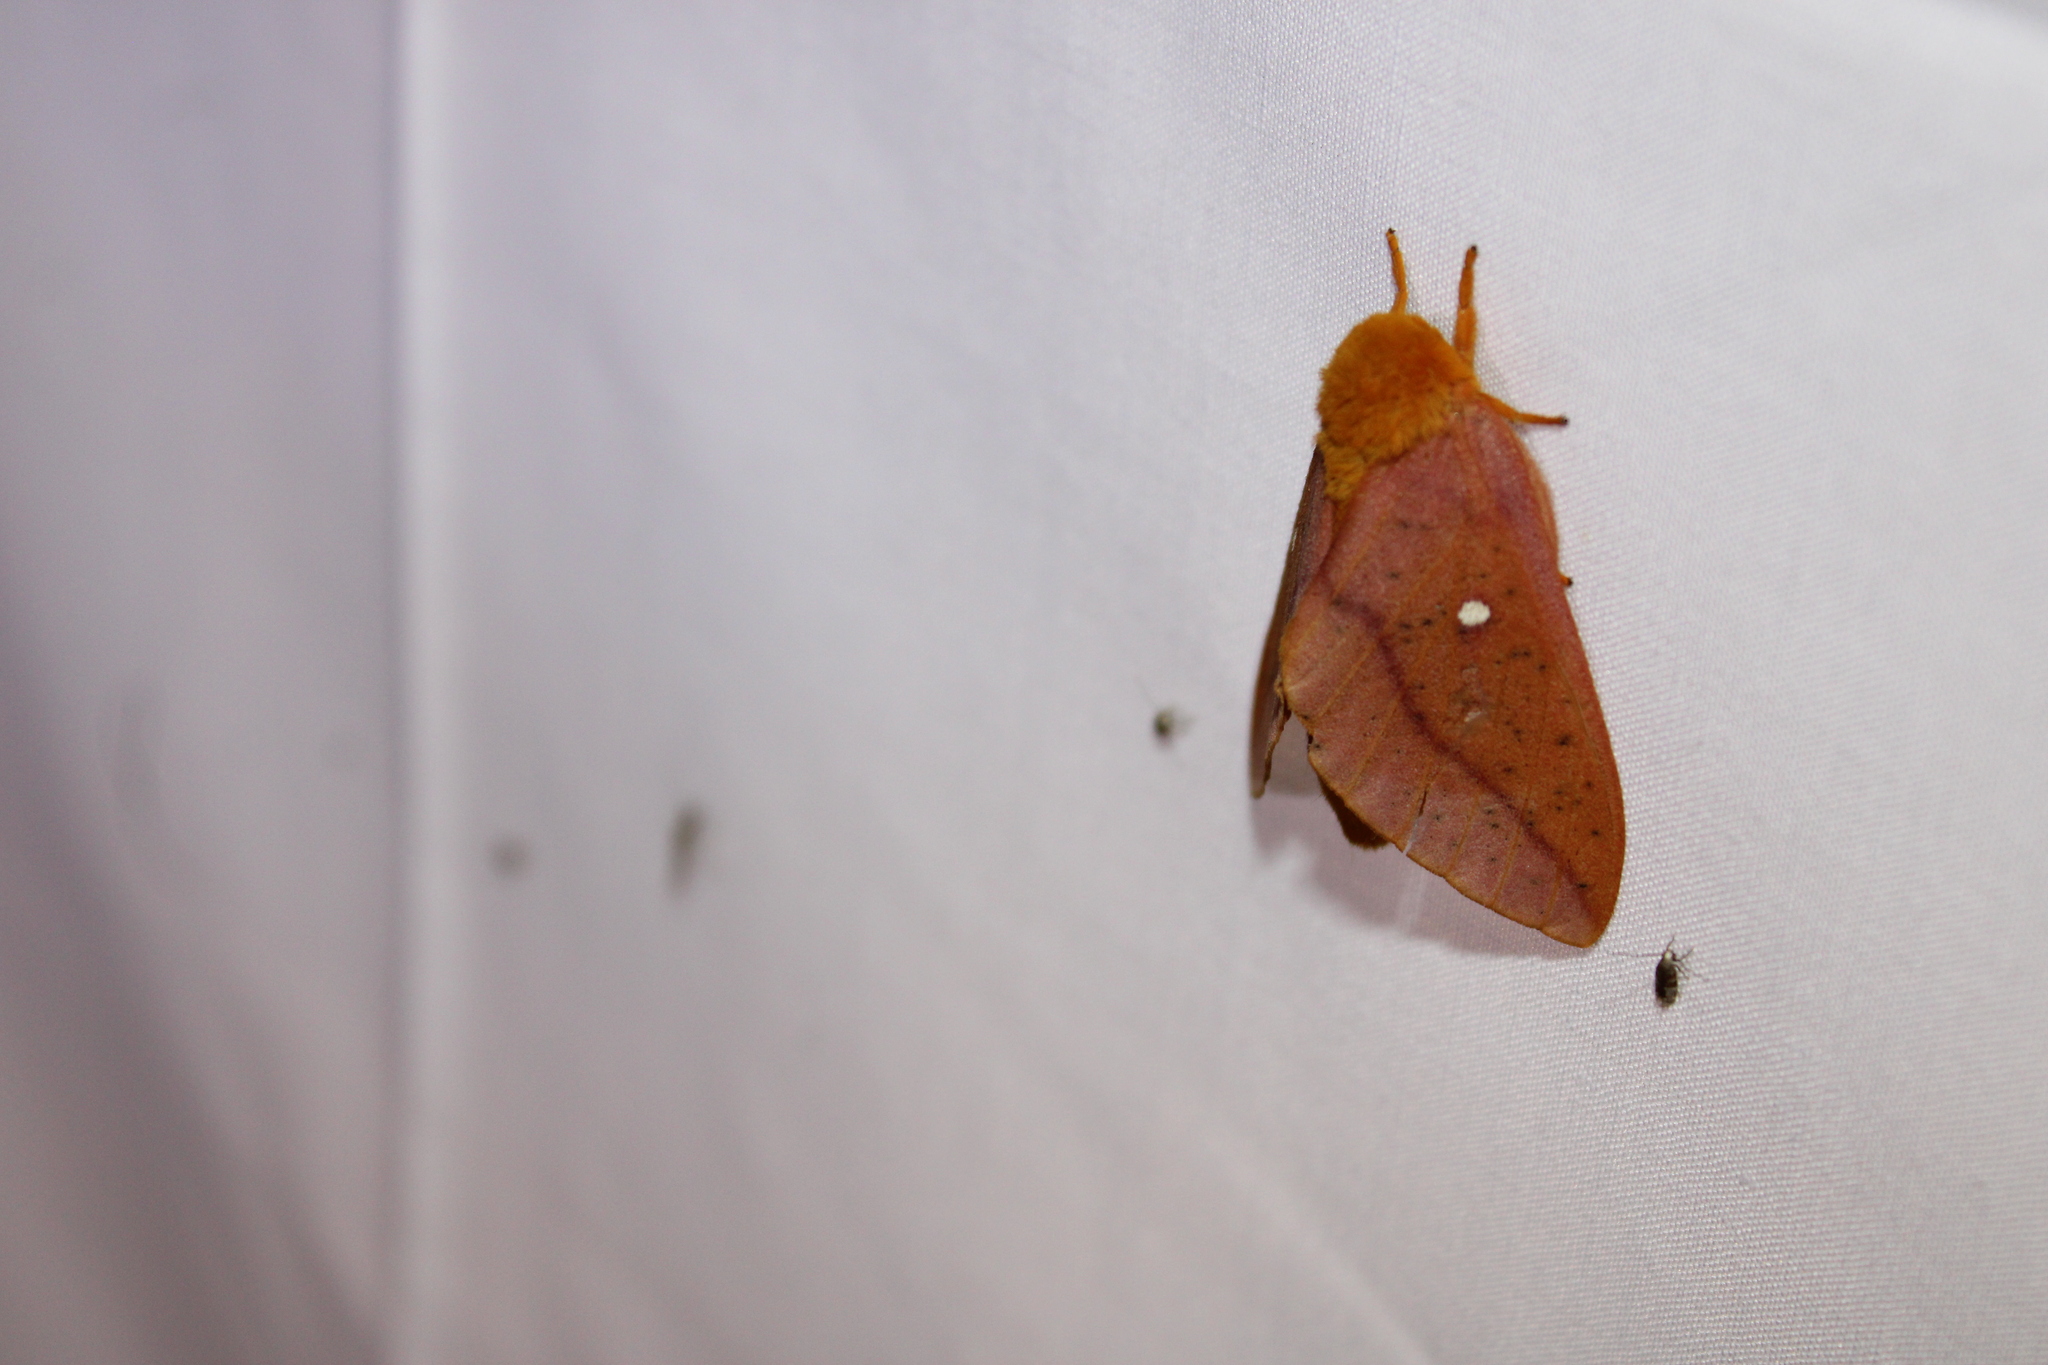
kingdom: Animalia
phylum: Arthropoda
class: Insecta
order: Lepidoptera
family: Saturniidae
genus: Anisota
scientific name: Anisota senatoria
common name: Orange-striped oakworm moth
